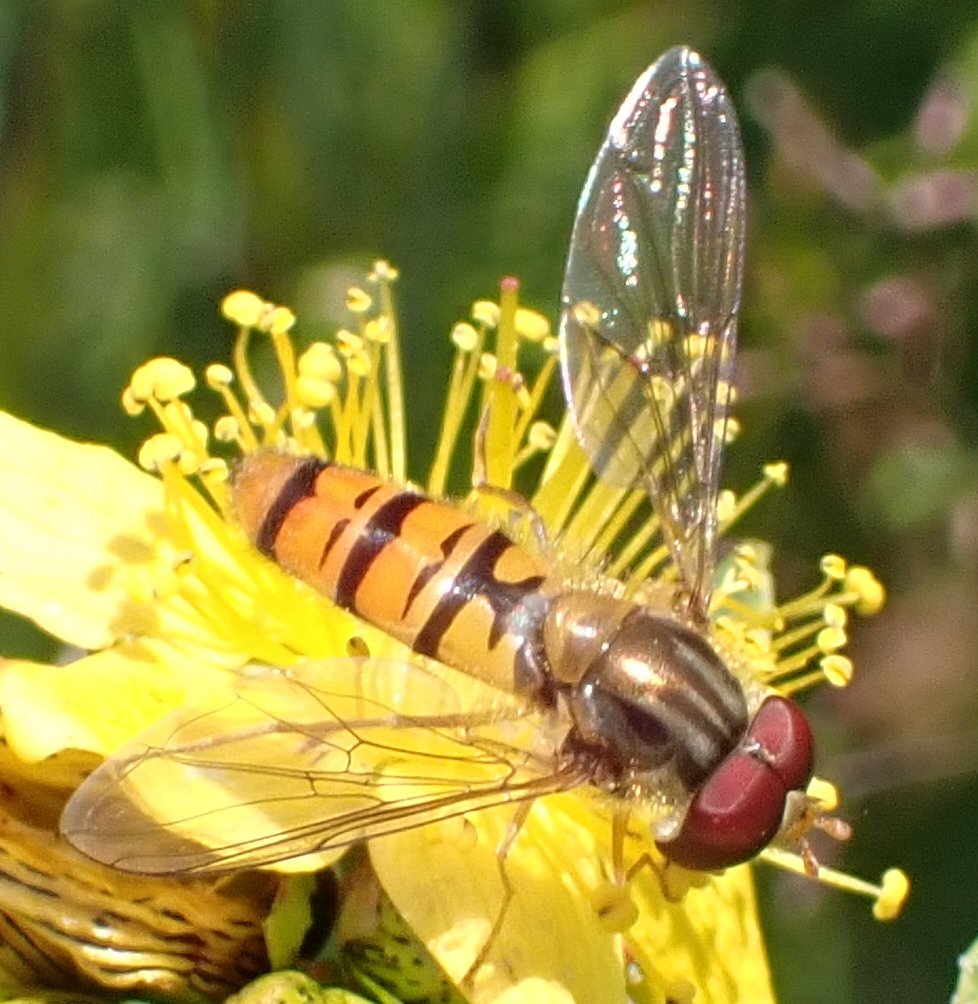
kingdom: Animalia
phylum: Arthropoda
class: Insecta
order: Diptera
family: Syrphidae
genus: Episyrphus
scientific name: Episyrphus balteatus
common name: Marmalade hoverfly
